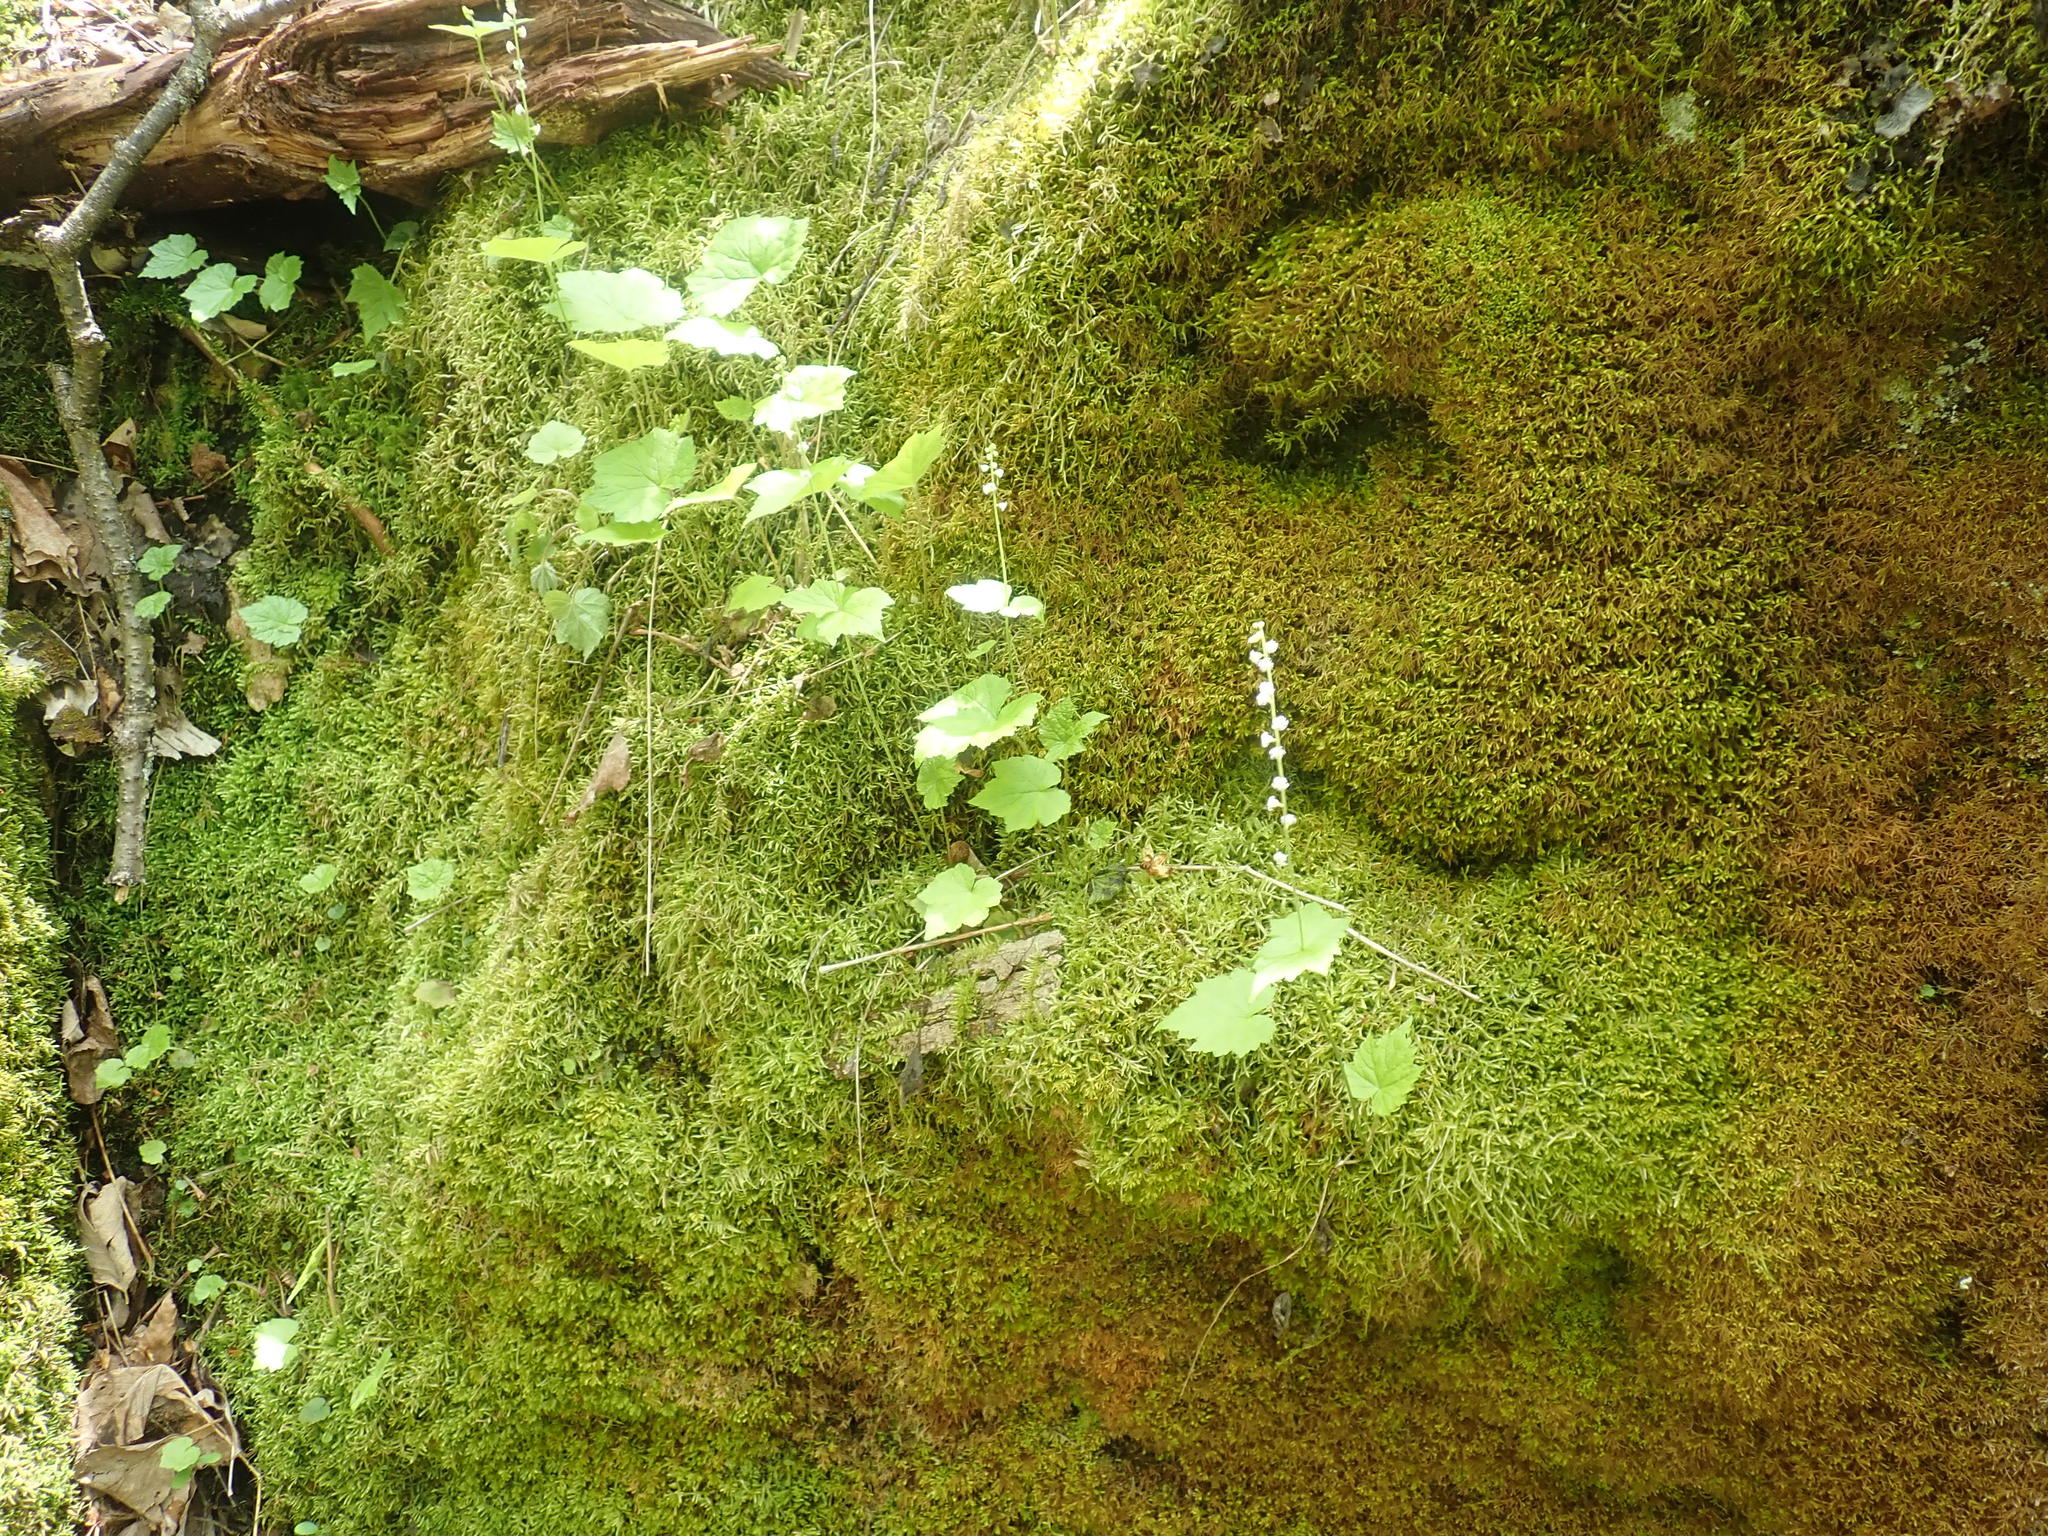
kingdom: Plantae
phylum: Tracheophyta
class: Magnoliopsida
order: Saxifragales
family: Saxifragaceae
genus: Mitella
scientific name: Mitella diphylla
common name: Coolwort
